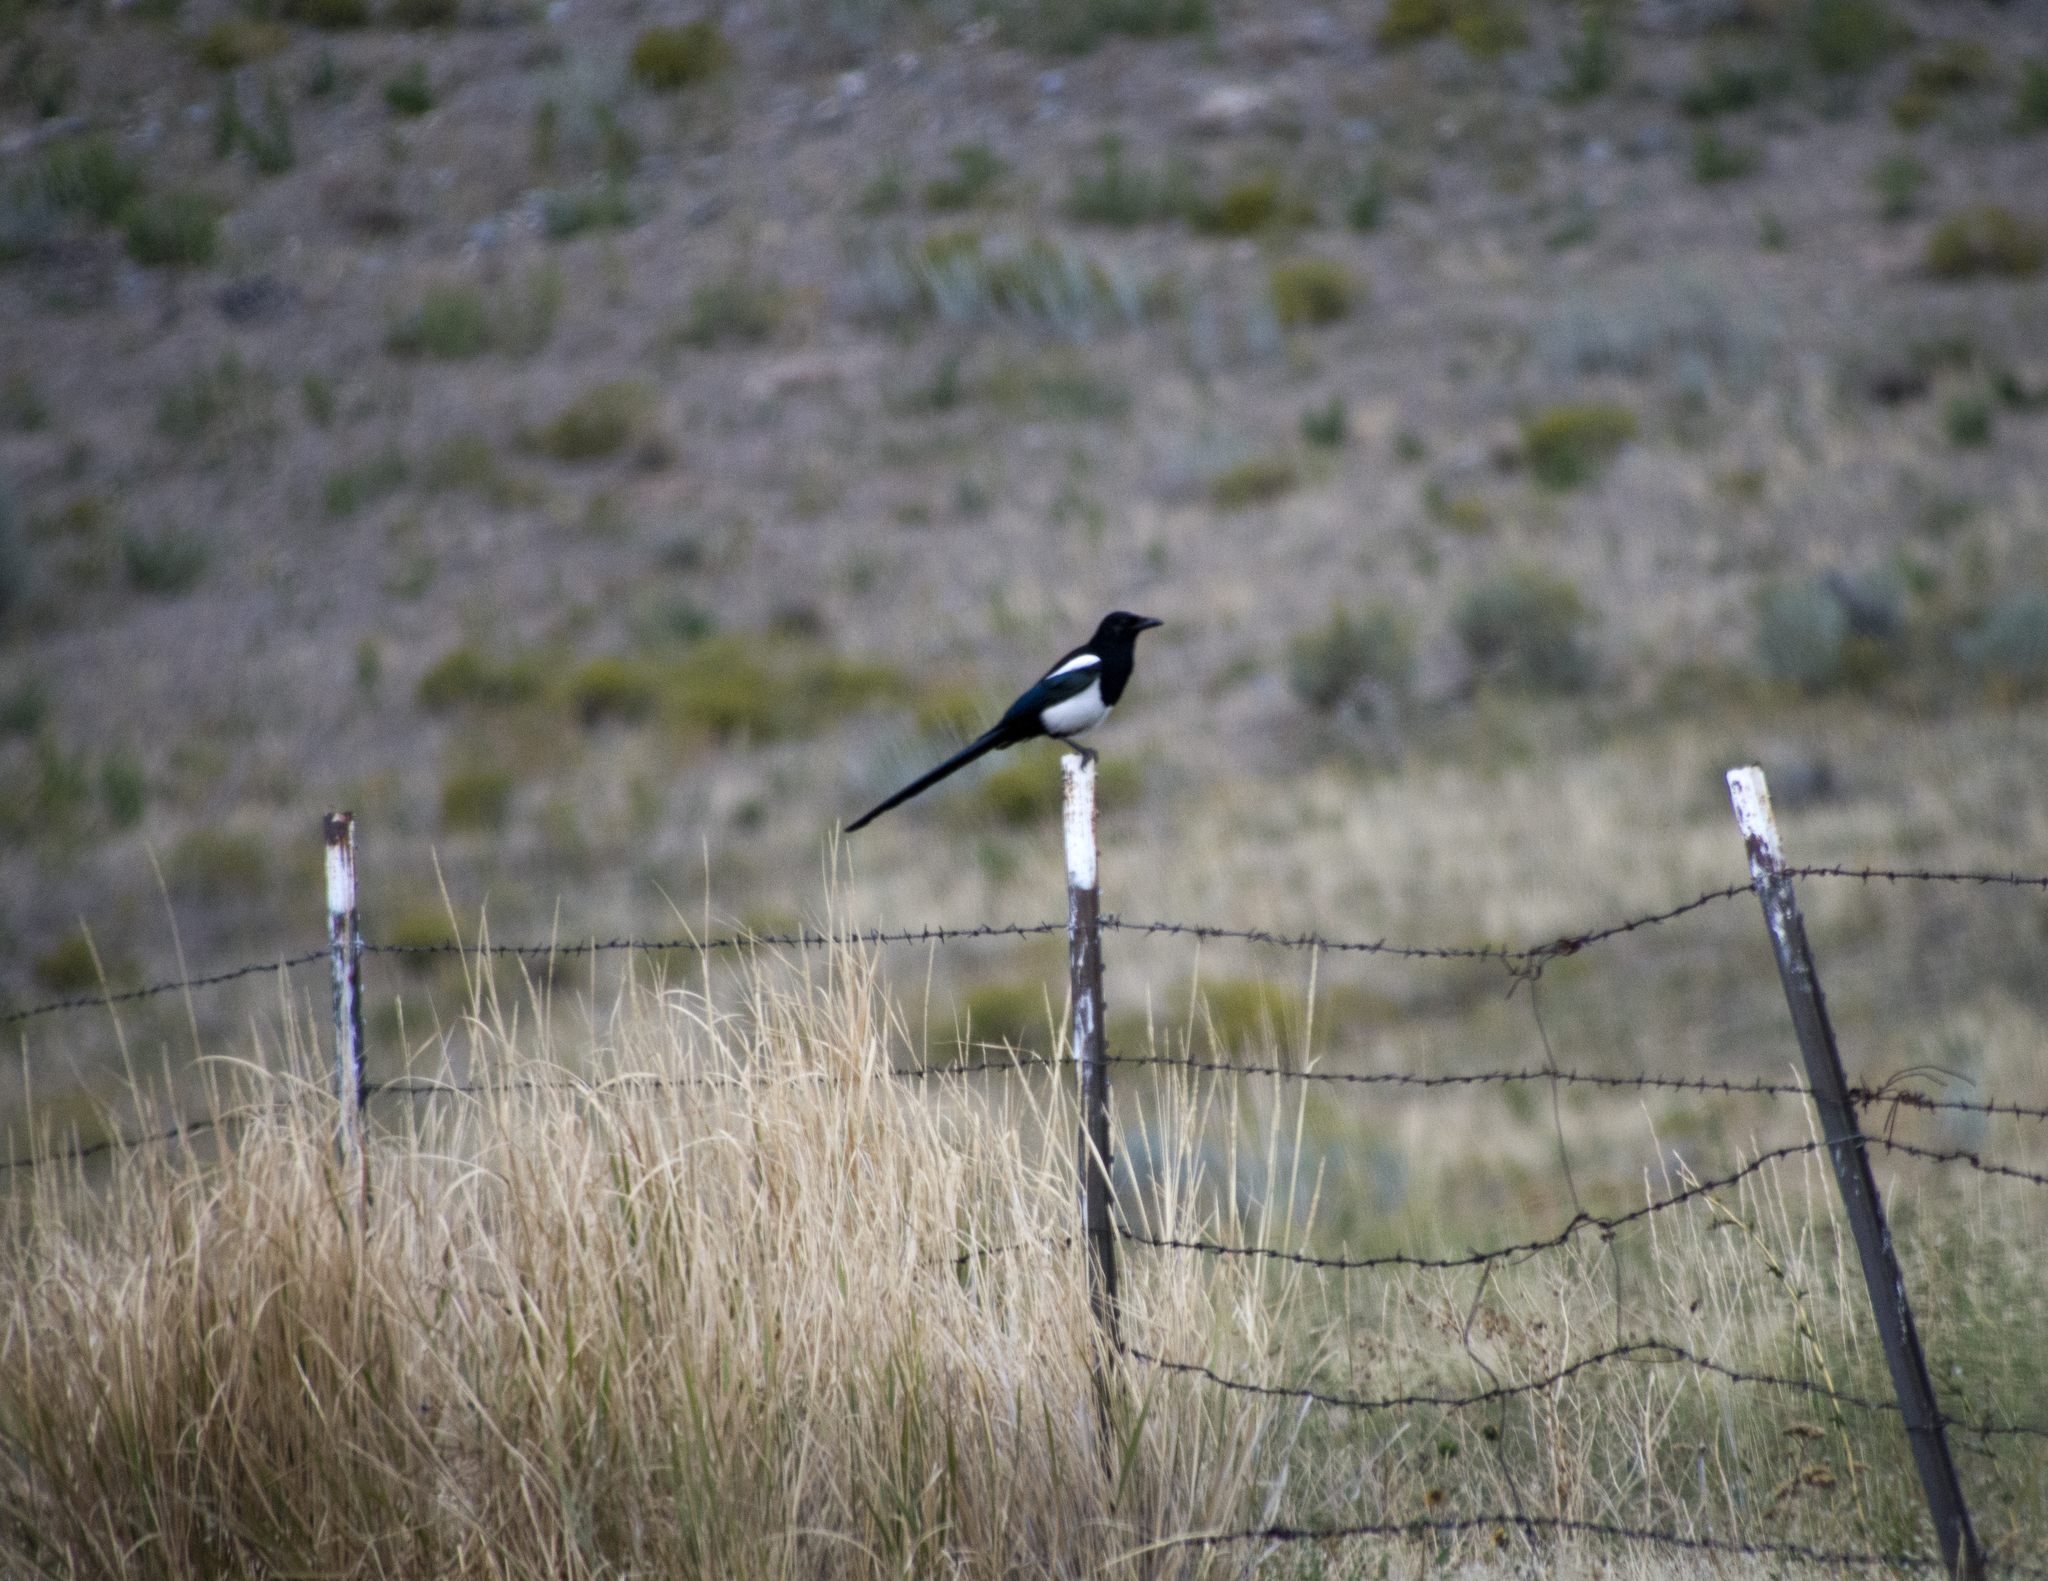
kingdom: Animalia
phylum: Chordata
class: Aves
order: Passeriformes
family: Corvidae
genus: Pica
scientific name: Pica hudsonia
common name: Black-billed magpie
